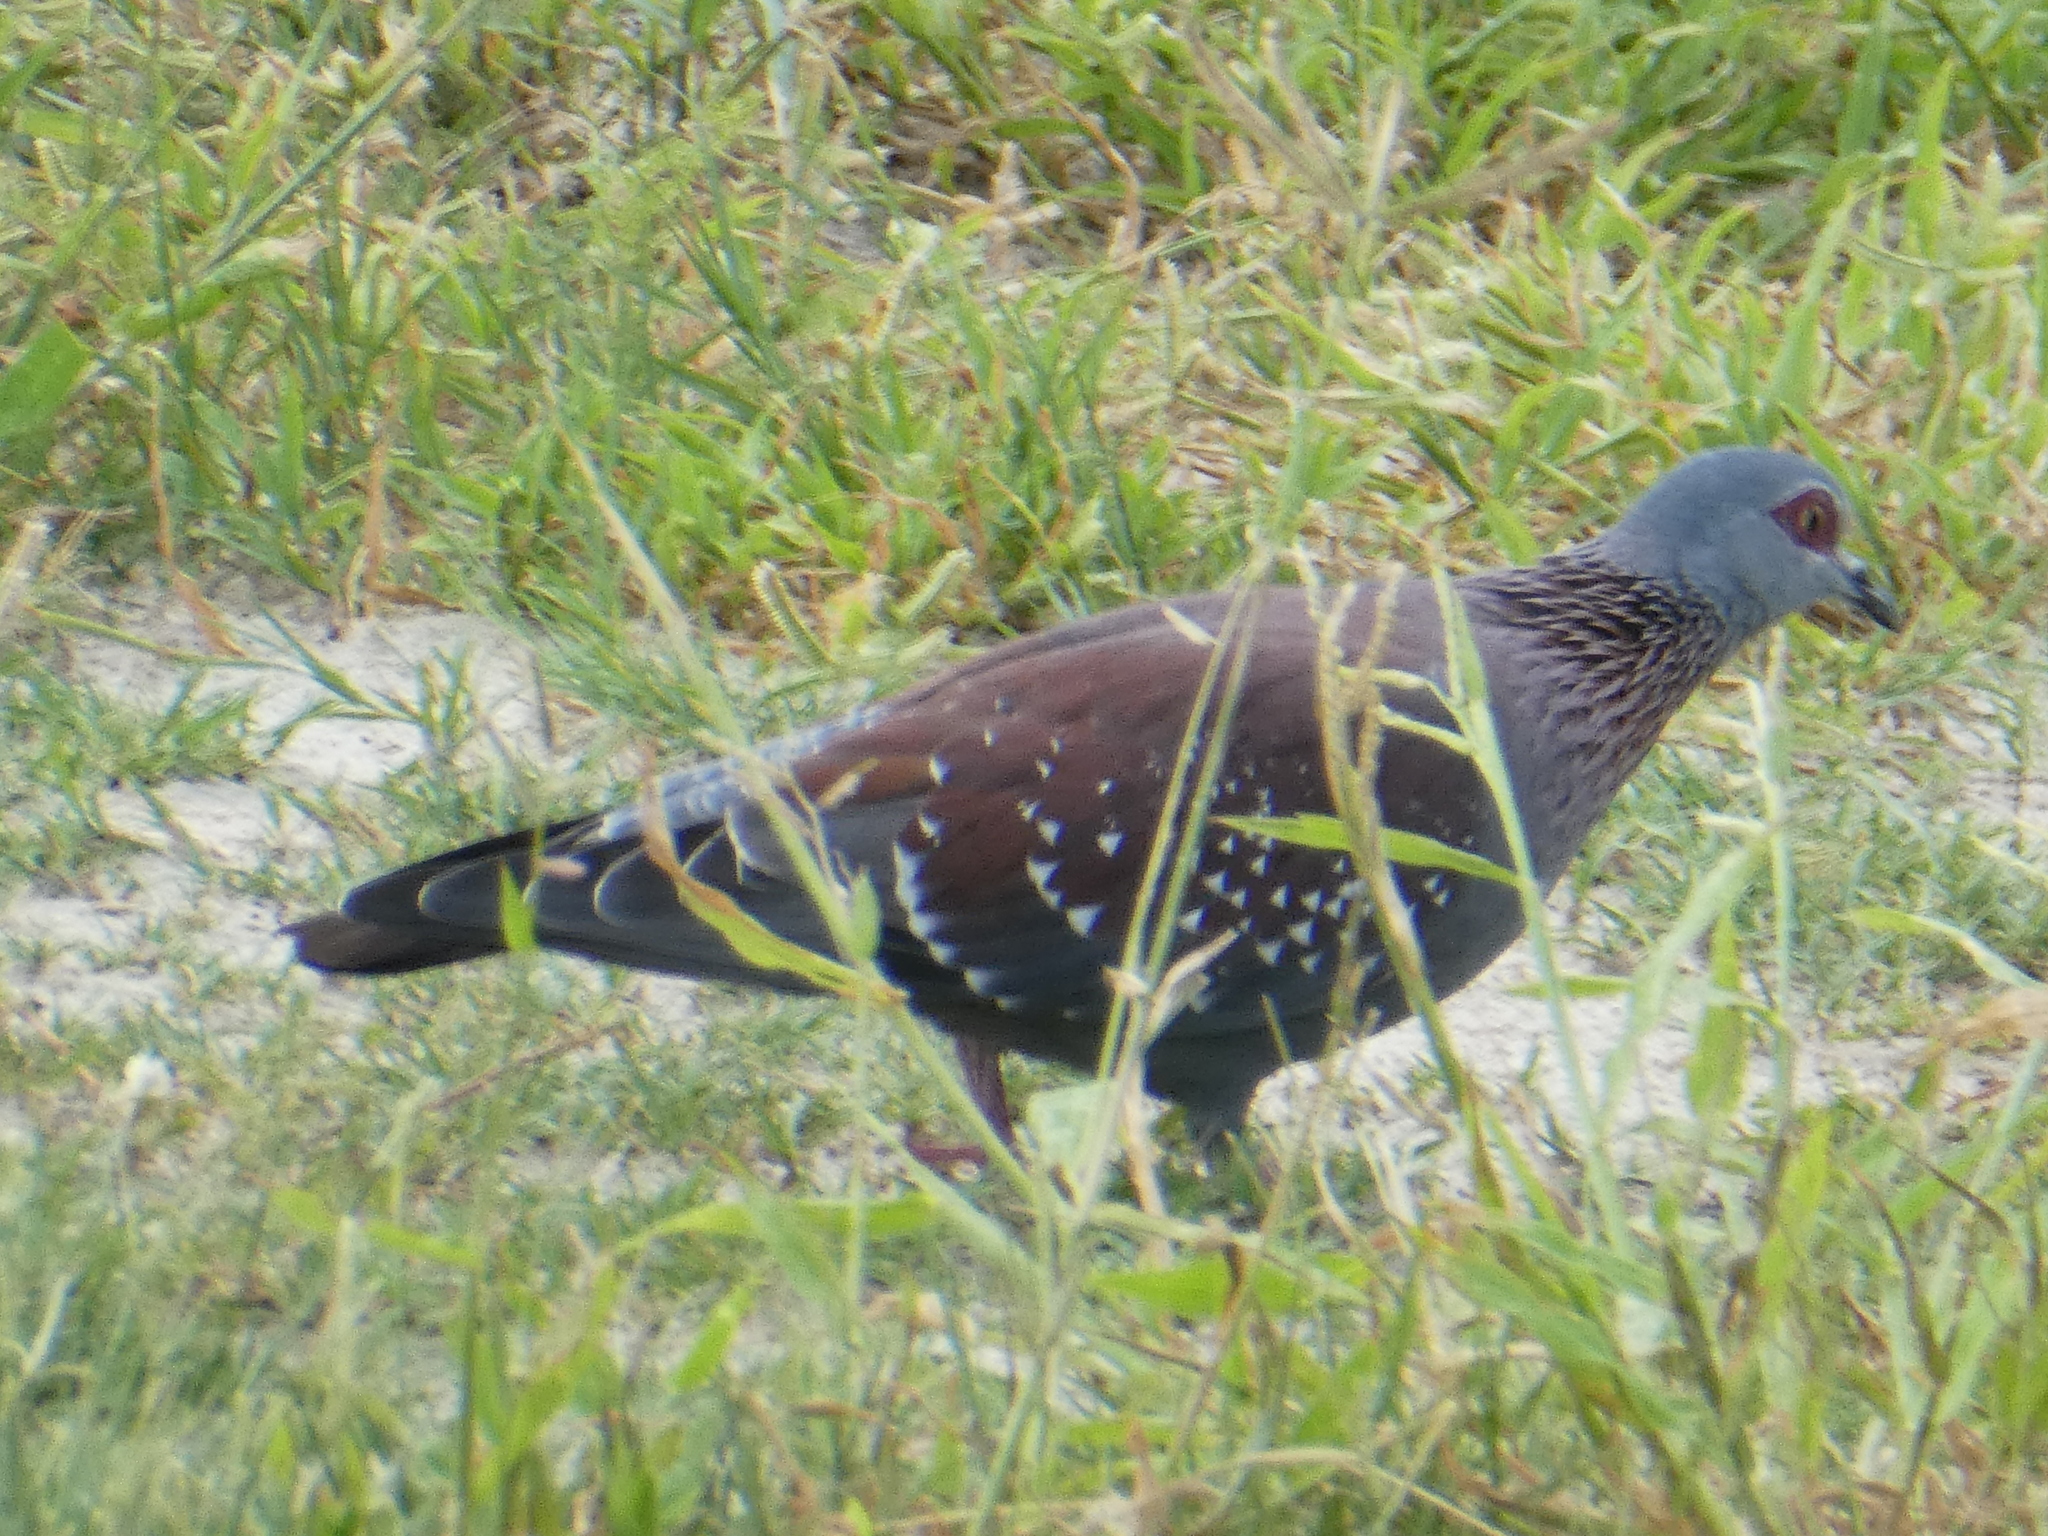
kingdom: Animalia
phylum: Chordata
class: Aves
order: Columbiformes
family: Columbidae
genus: Columba
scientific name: Columba guinea
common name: Speckled pigeon
